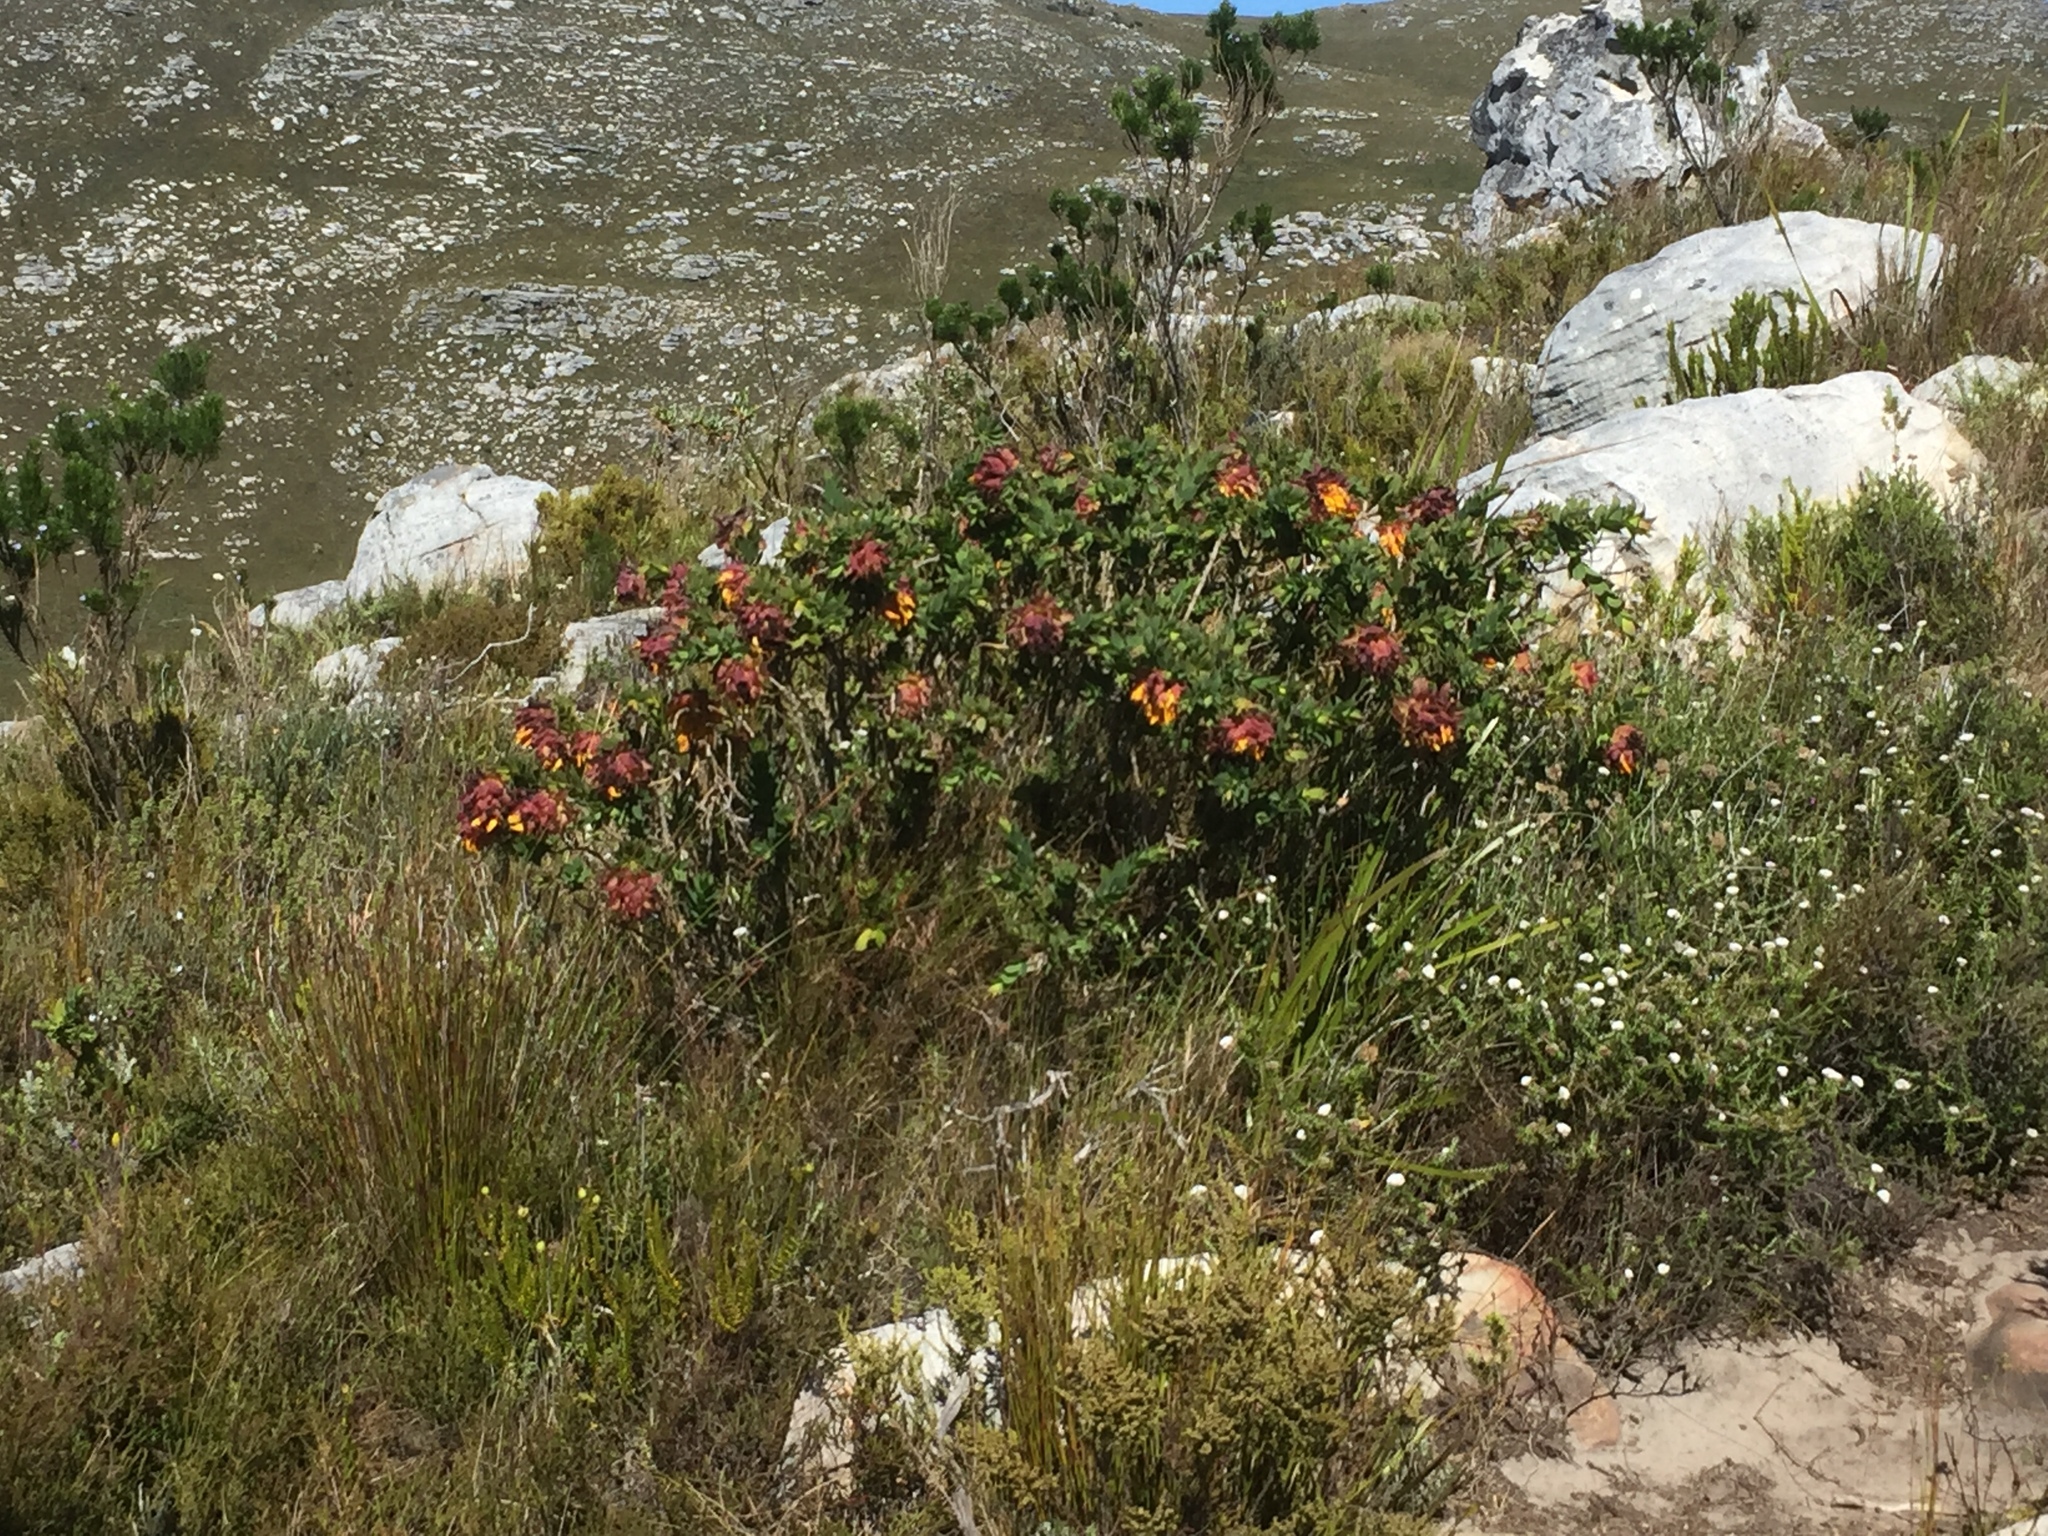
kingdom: Plantae
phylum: Tracheophyta
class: Magnoliopsida
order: Fabales
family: Fabaceae
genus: Liparia
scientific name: Liparia splendens
